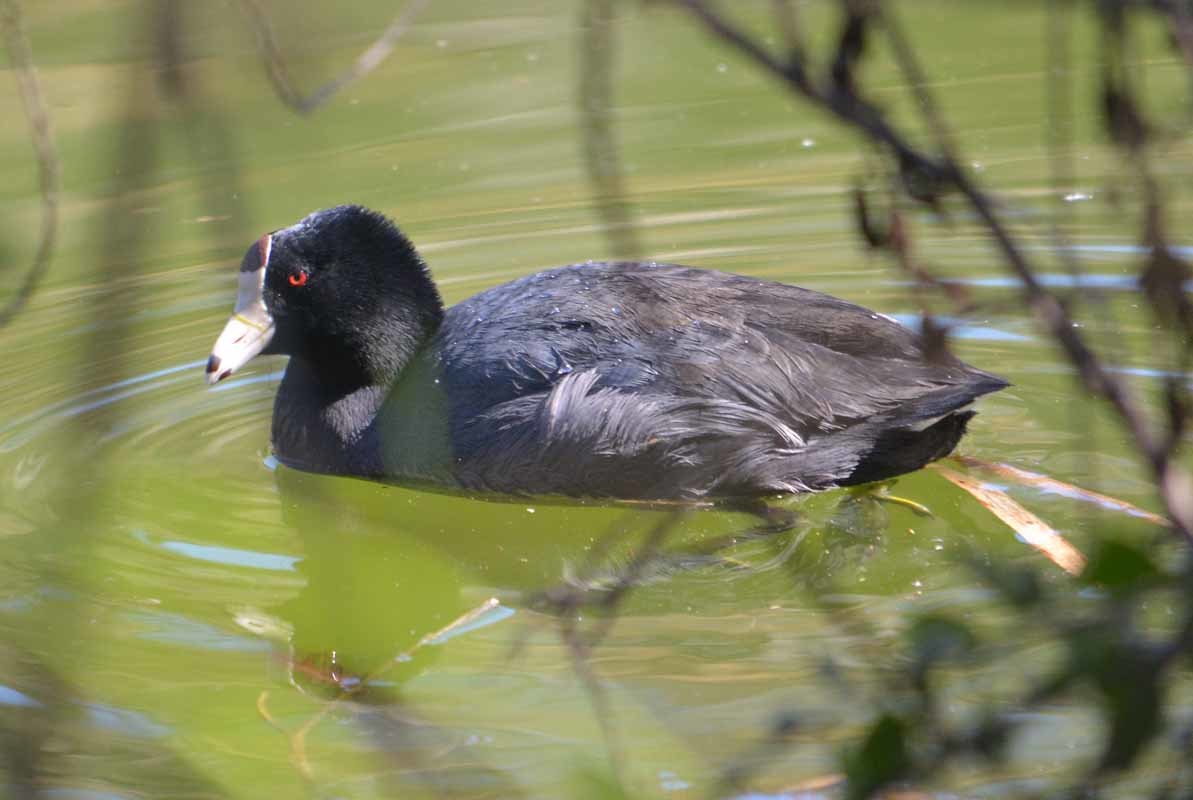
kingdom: Animalia
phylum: Chordata
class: Aves
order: Gruiformes
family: Rallidae
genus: Fulica
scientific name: Fulica americana
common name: American coot
